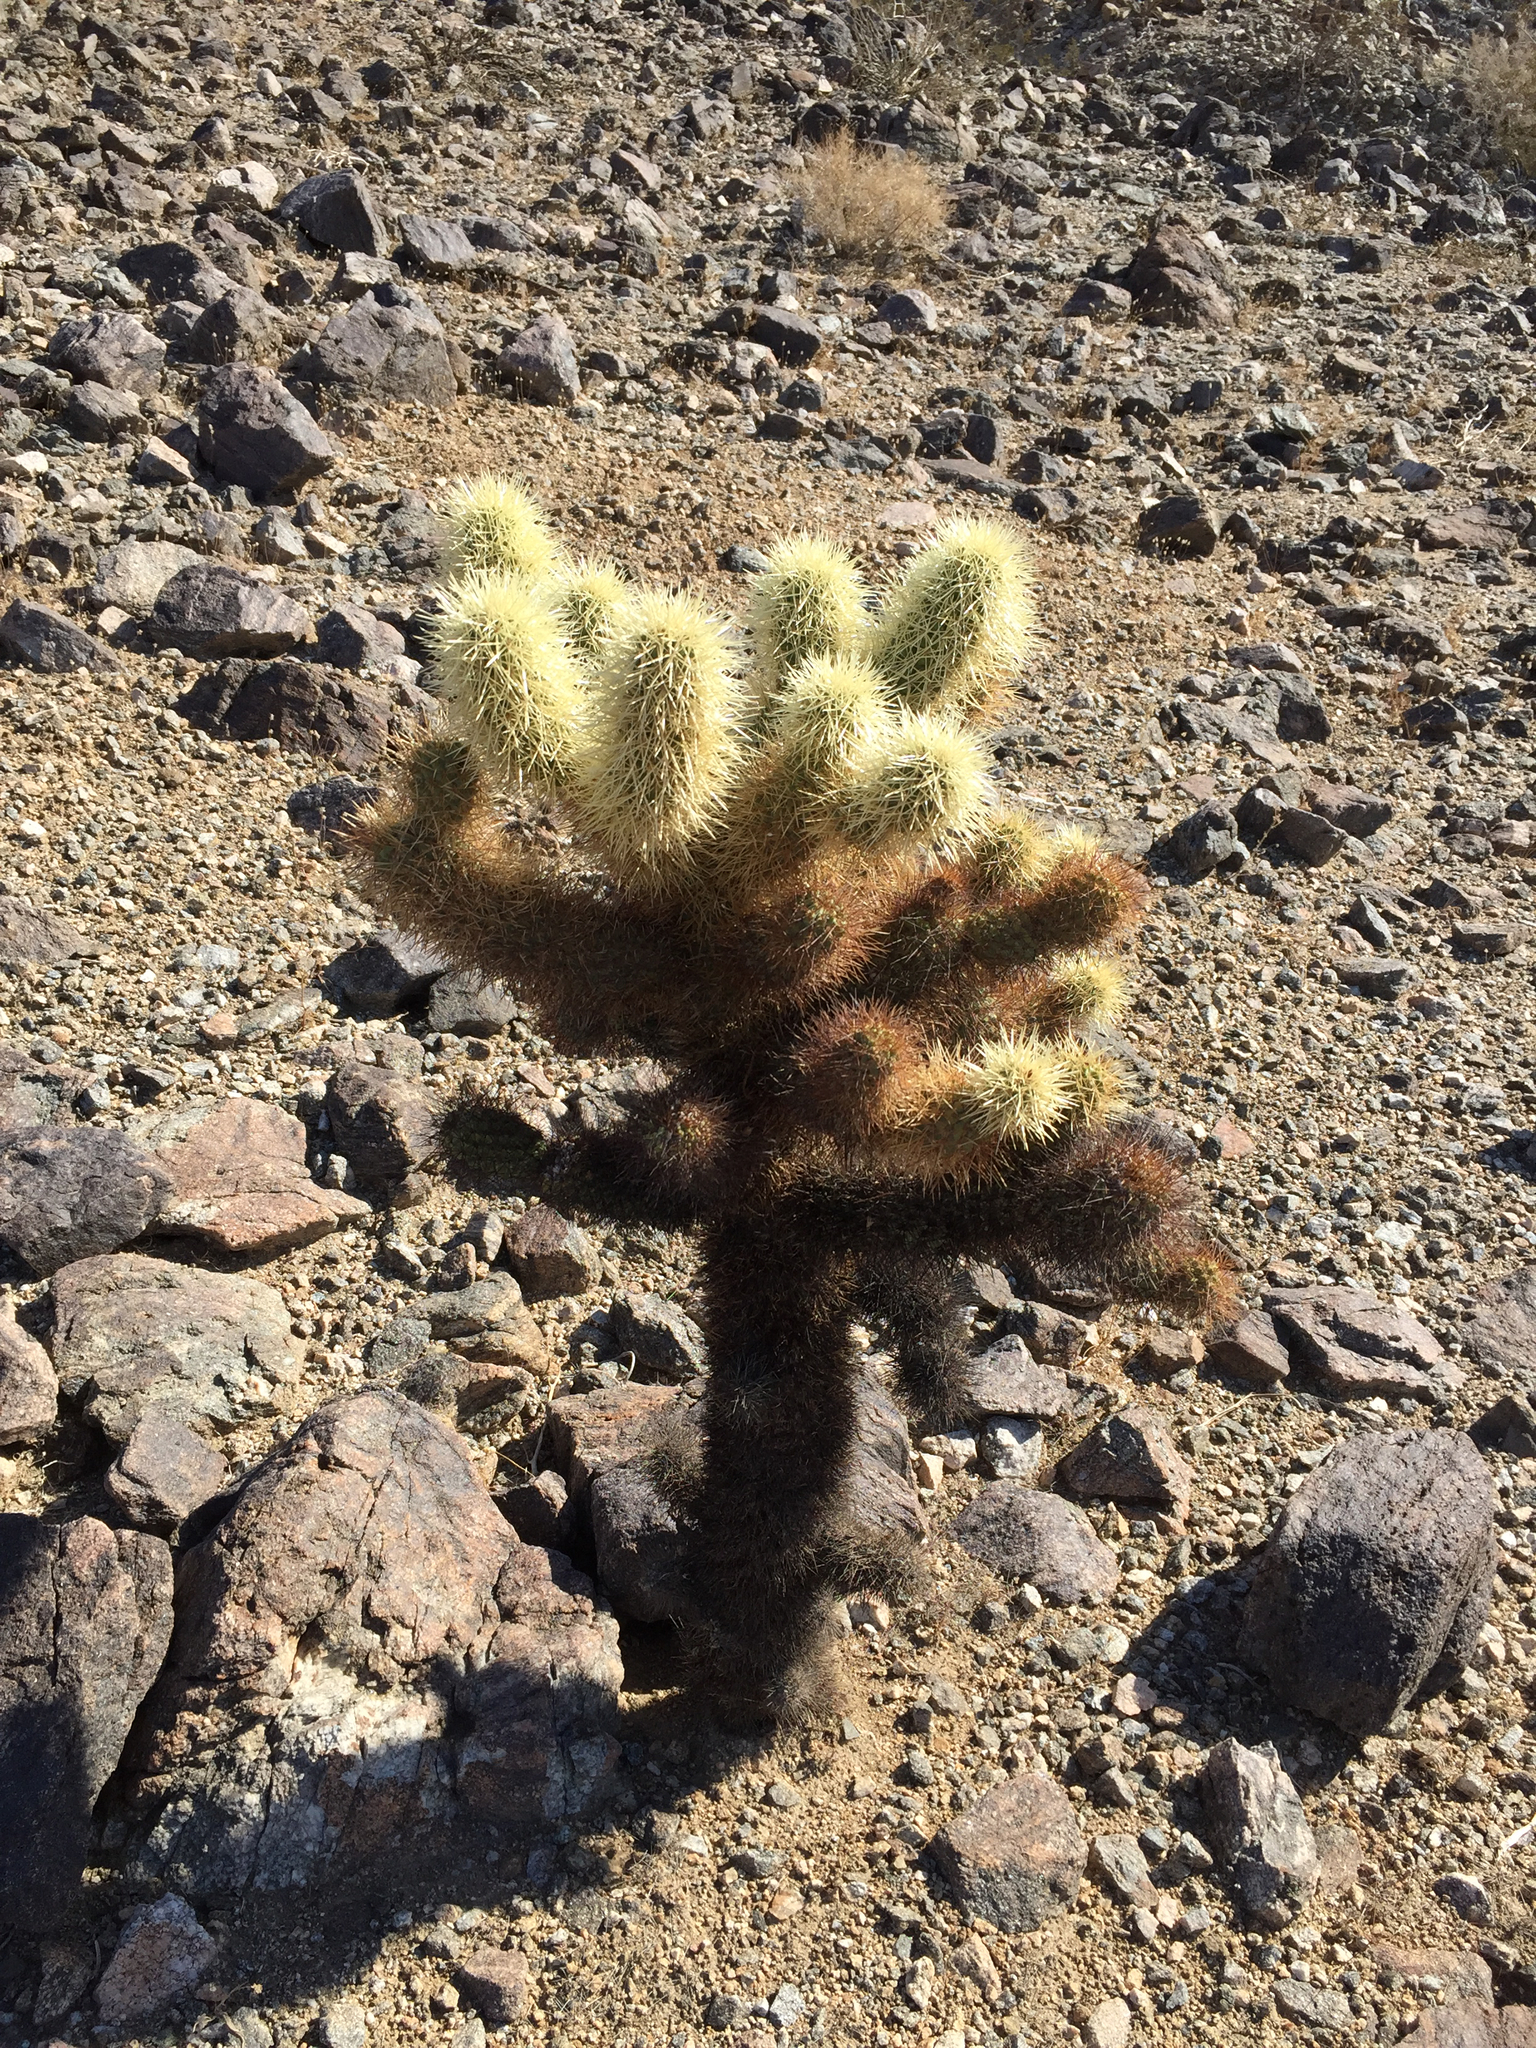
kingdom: Plantae
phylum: Tracheophyta
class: Magnoliopsida
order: Caryophyllales
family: Cactaceae
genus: Cylindropuntia
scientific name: Cylindropuntia fosbergii
